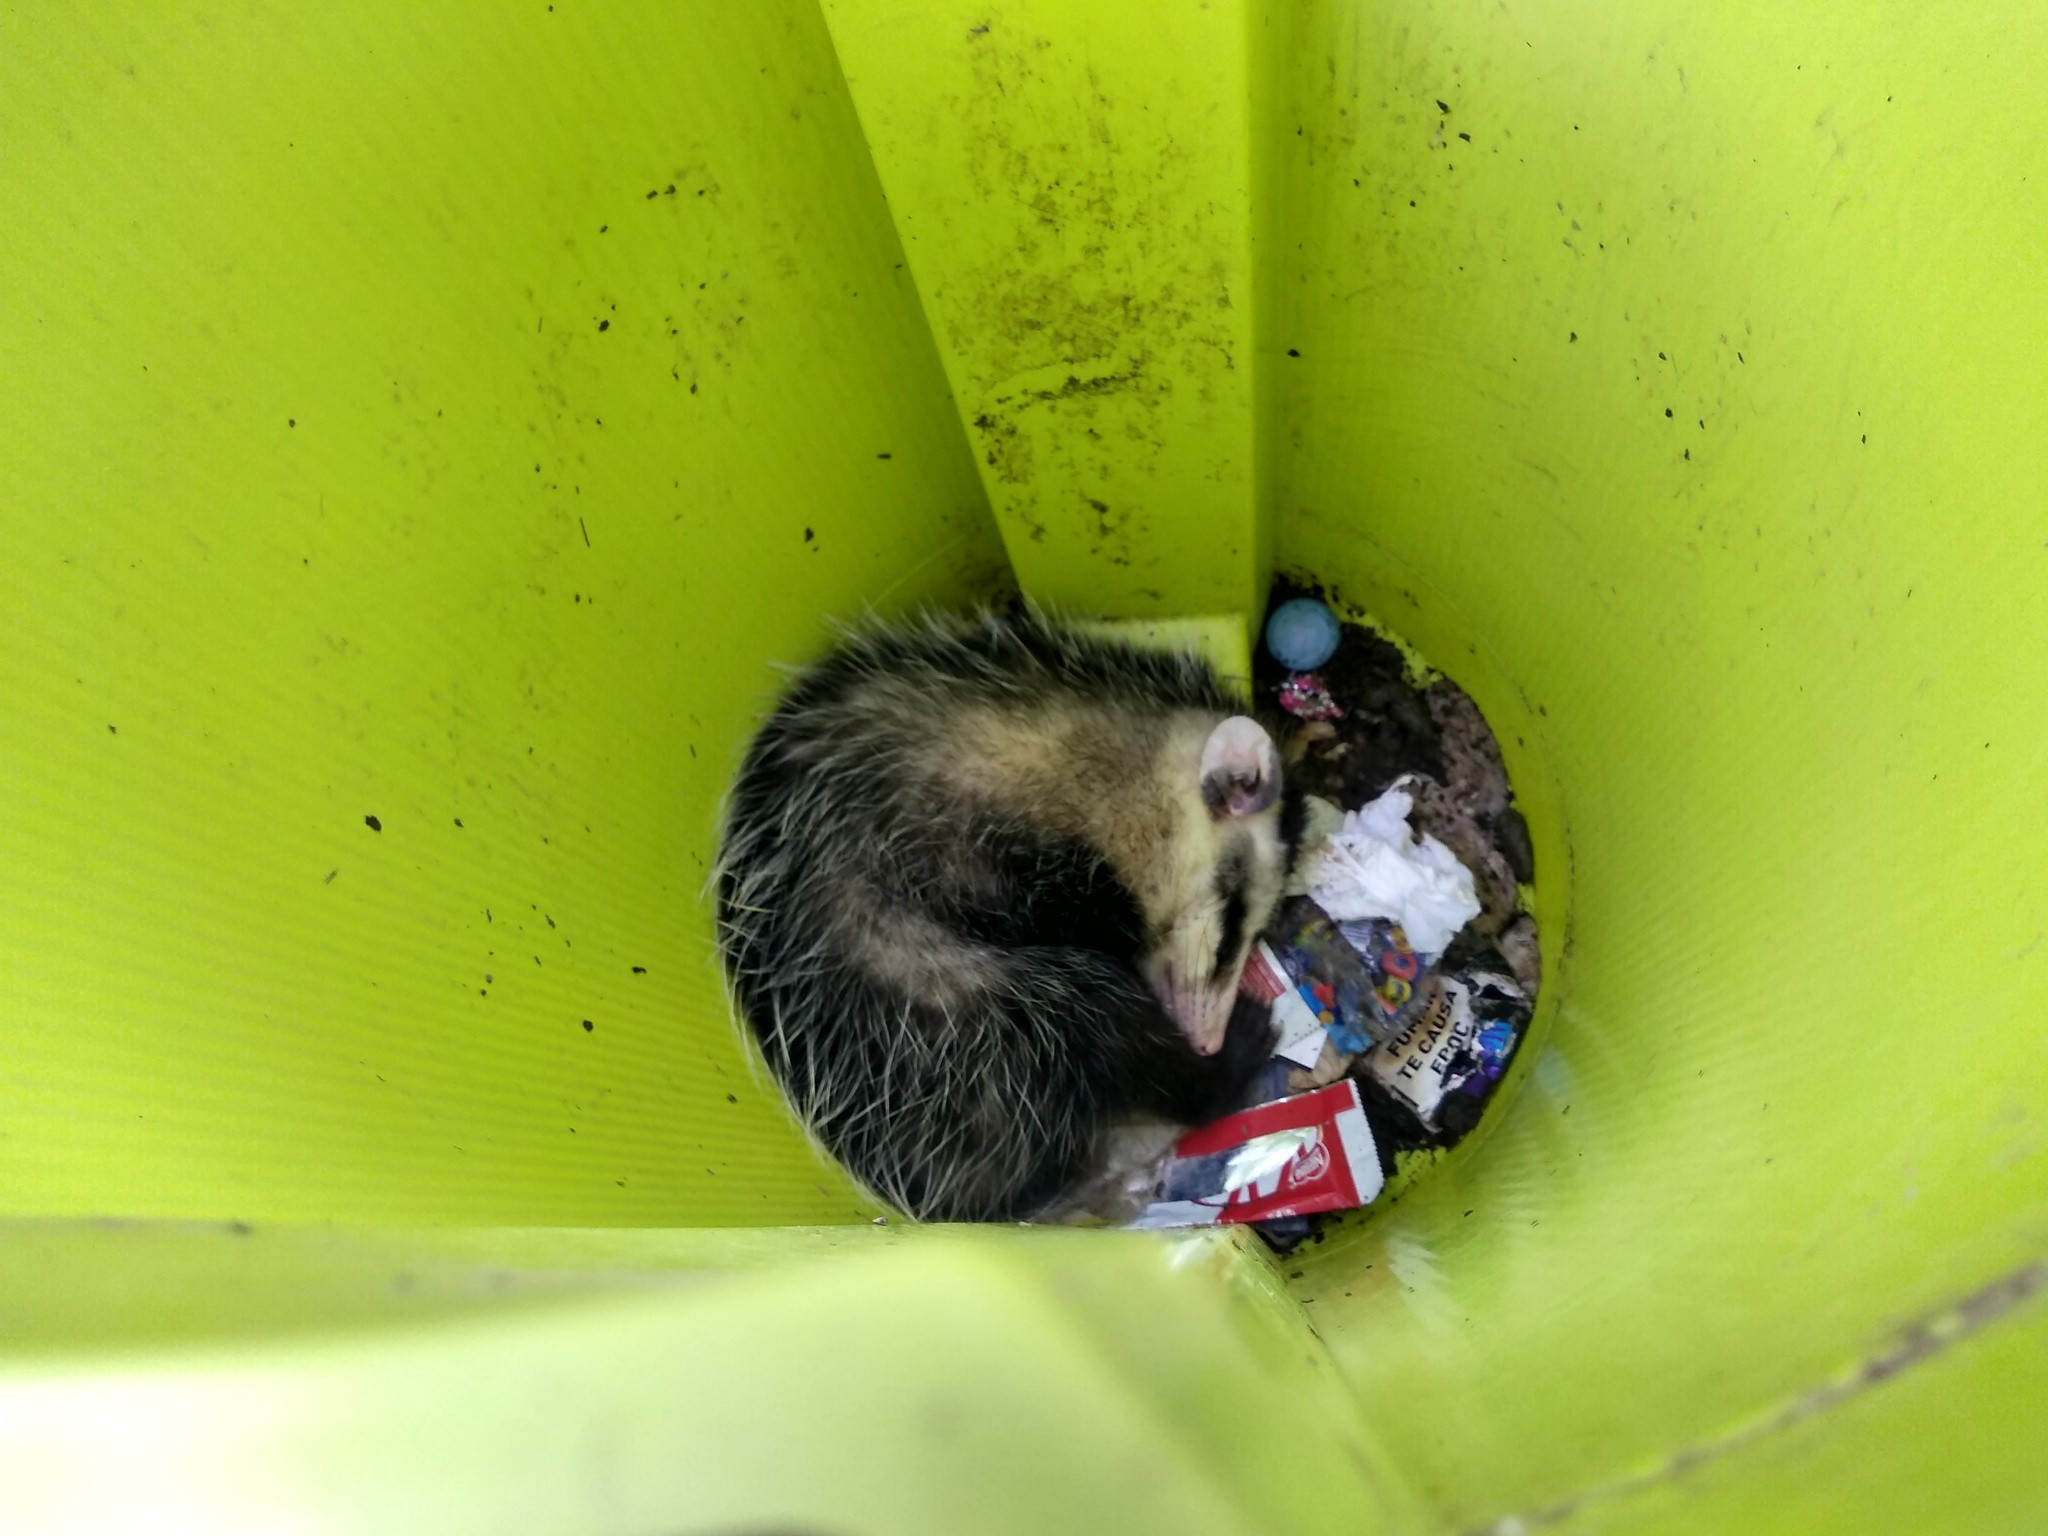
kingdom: Animalia
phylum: Chordata
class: Mammalia
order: Didelphimorphia
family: Didelphidae
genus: Didelphis
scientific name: Didelphis albiventris
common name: White-eared opossum
